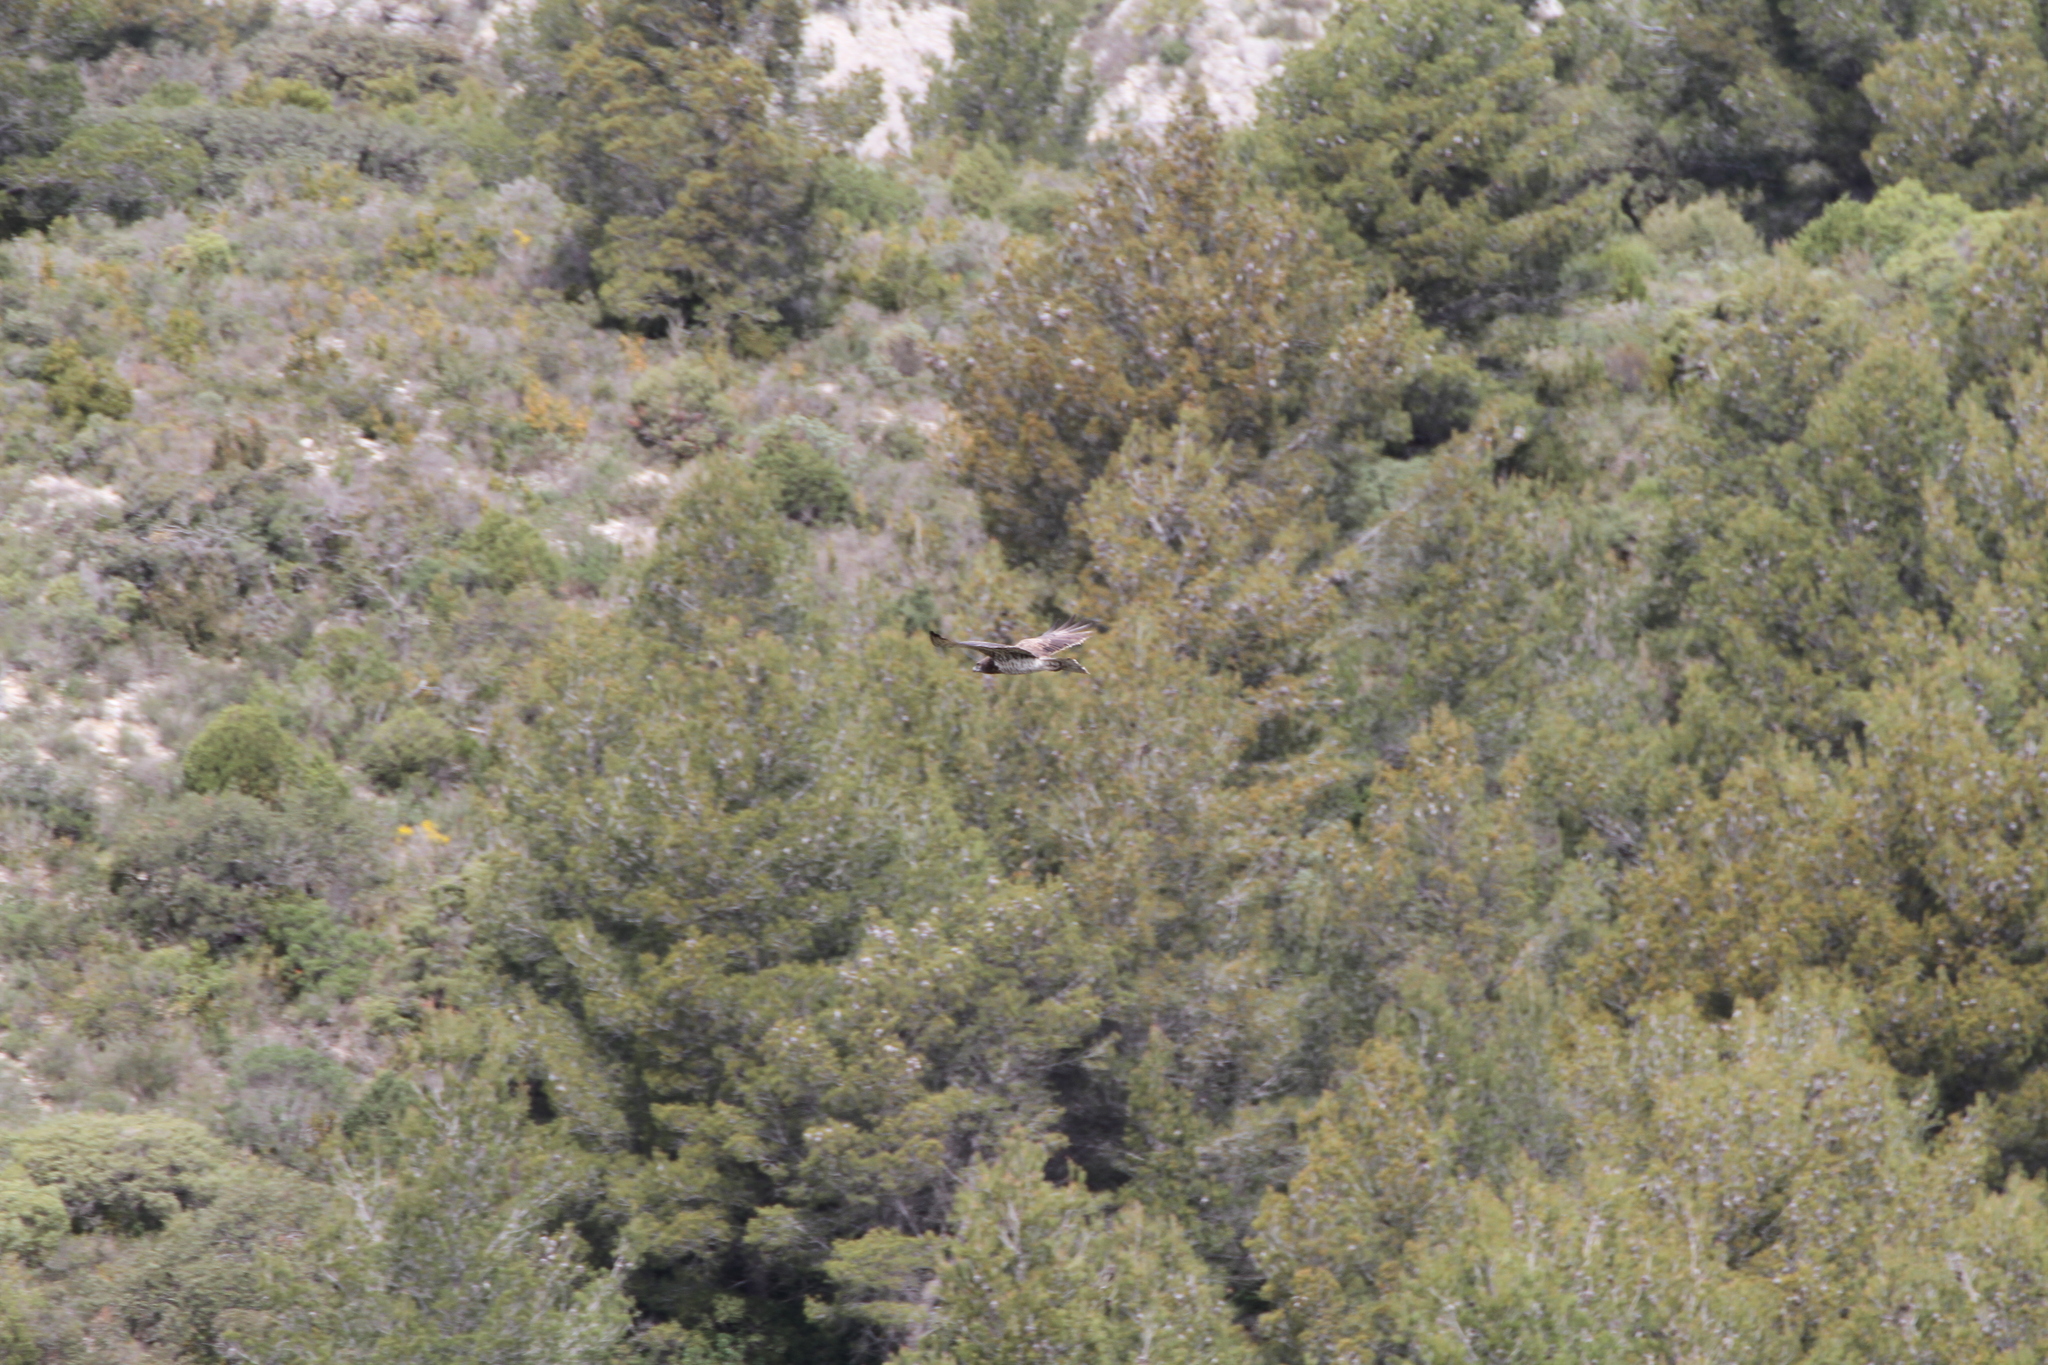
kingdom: Animalia
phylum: Chordata
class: Aves
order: Accipitriformes
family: Accipitridae
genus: Circaetus
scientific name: Circaetus gallicus
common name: Short-toed snake eagle
